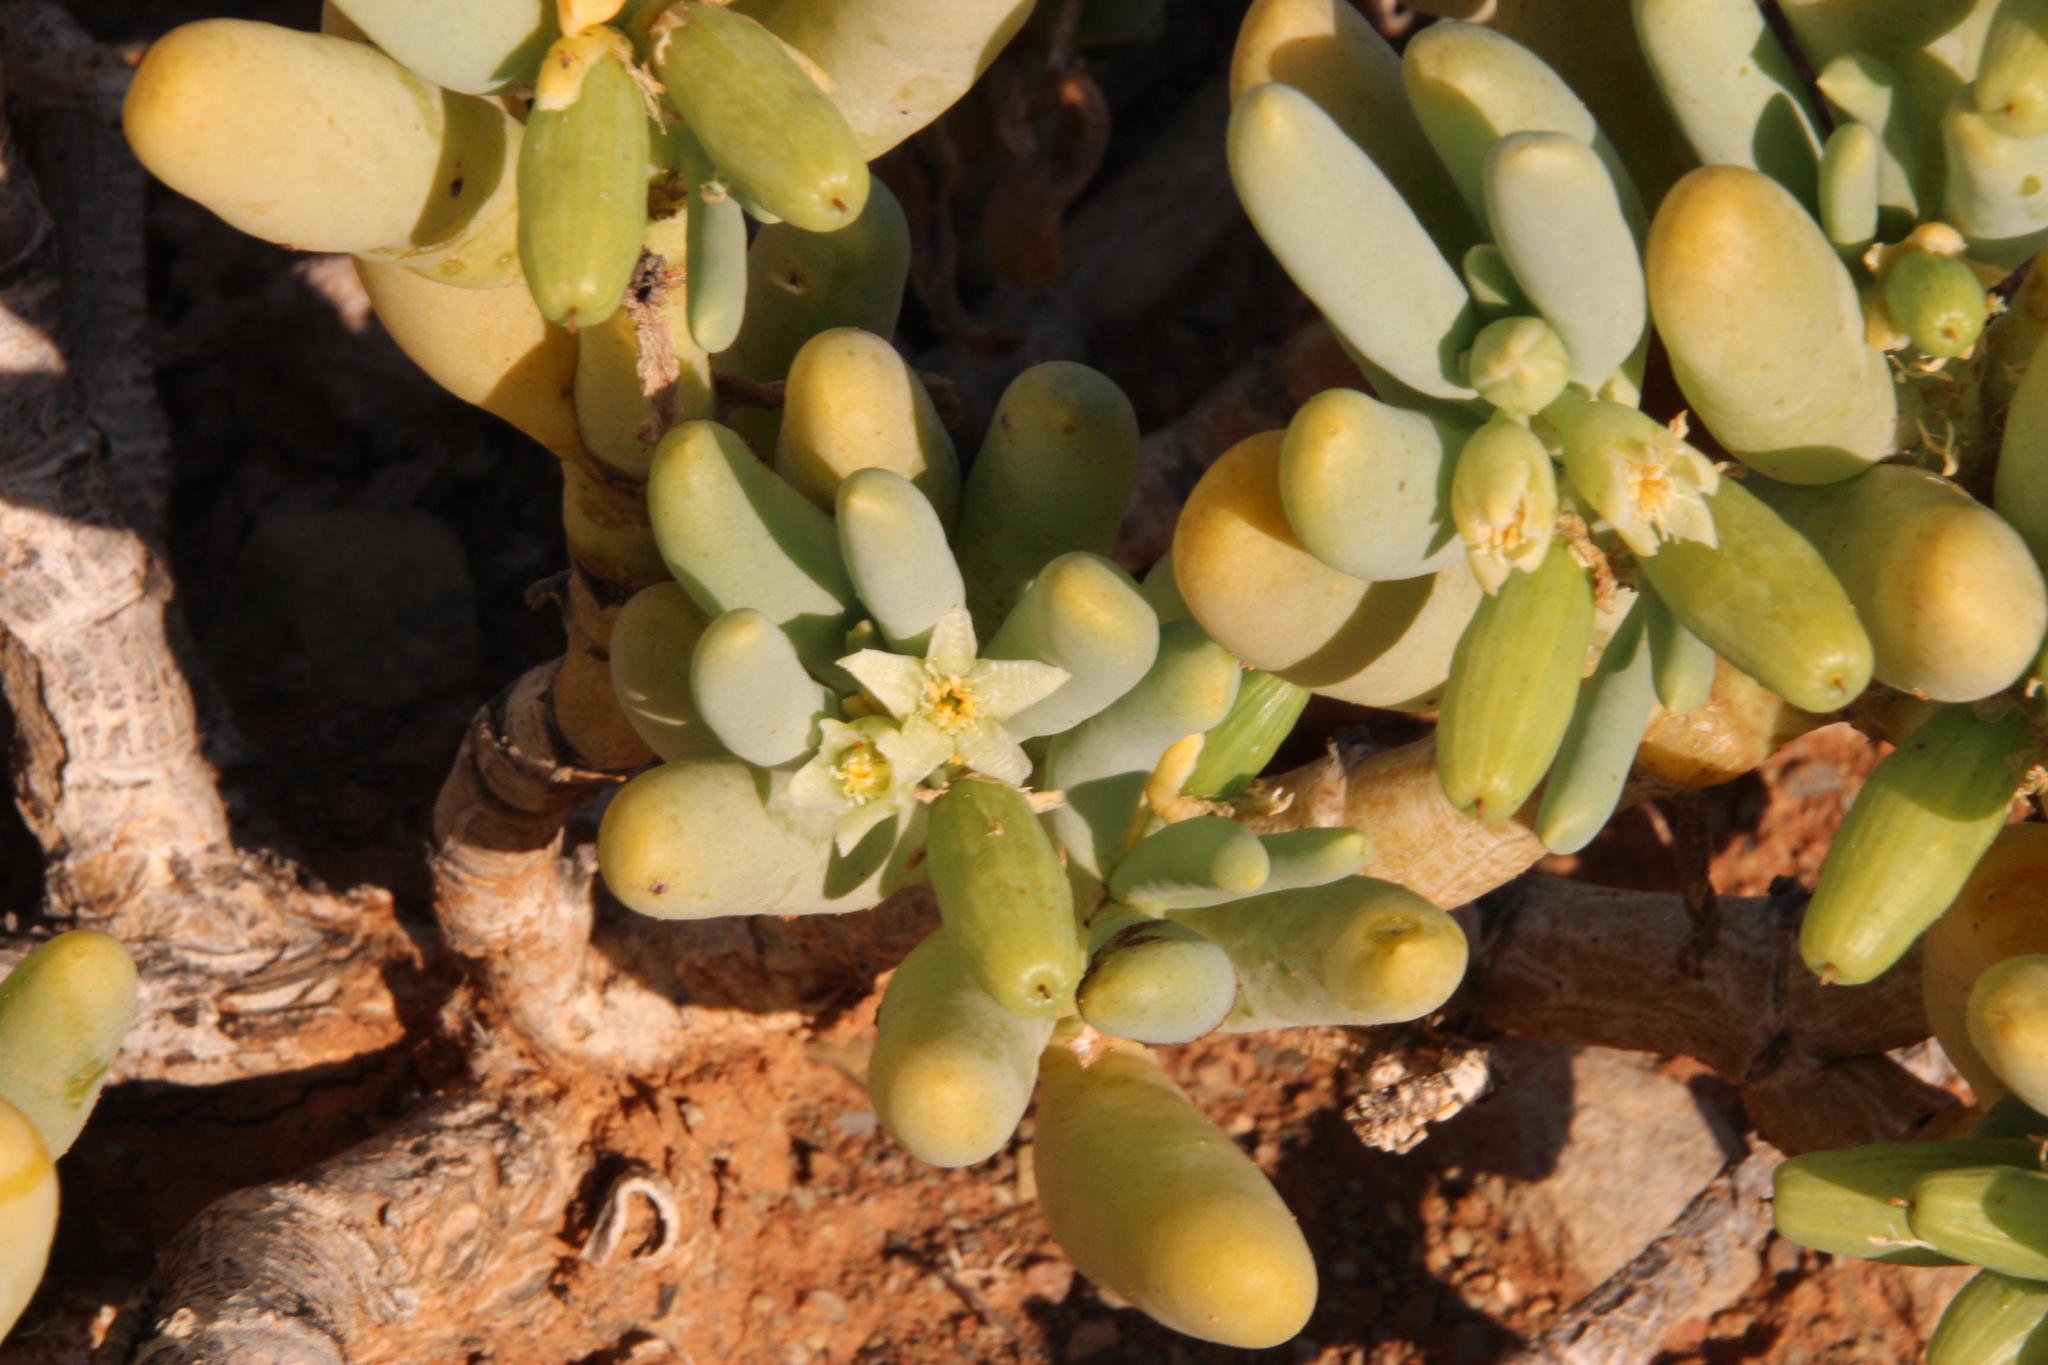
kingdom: Plantae
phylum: Tracheophyta
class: Magnoliopsida
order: Zygophyllales
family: Zygophyllaceae
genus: Augea
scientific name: Augea capensis
